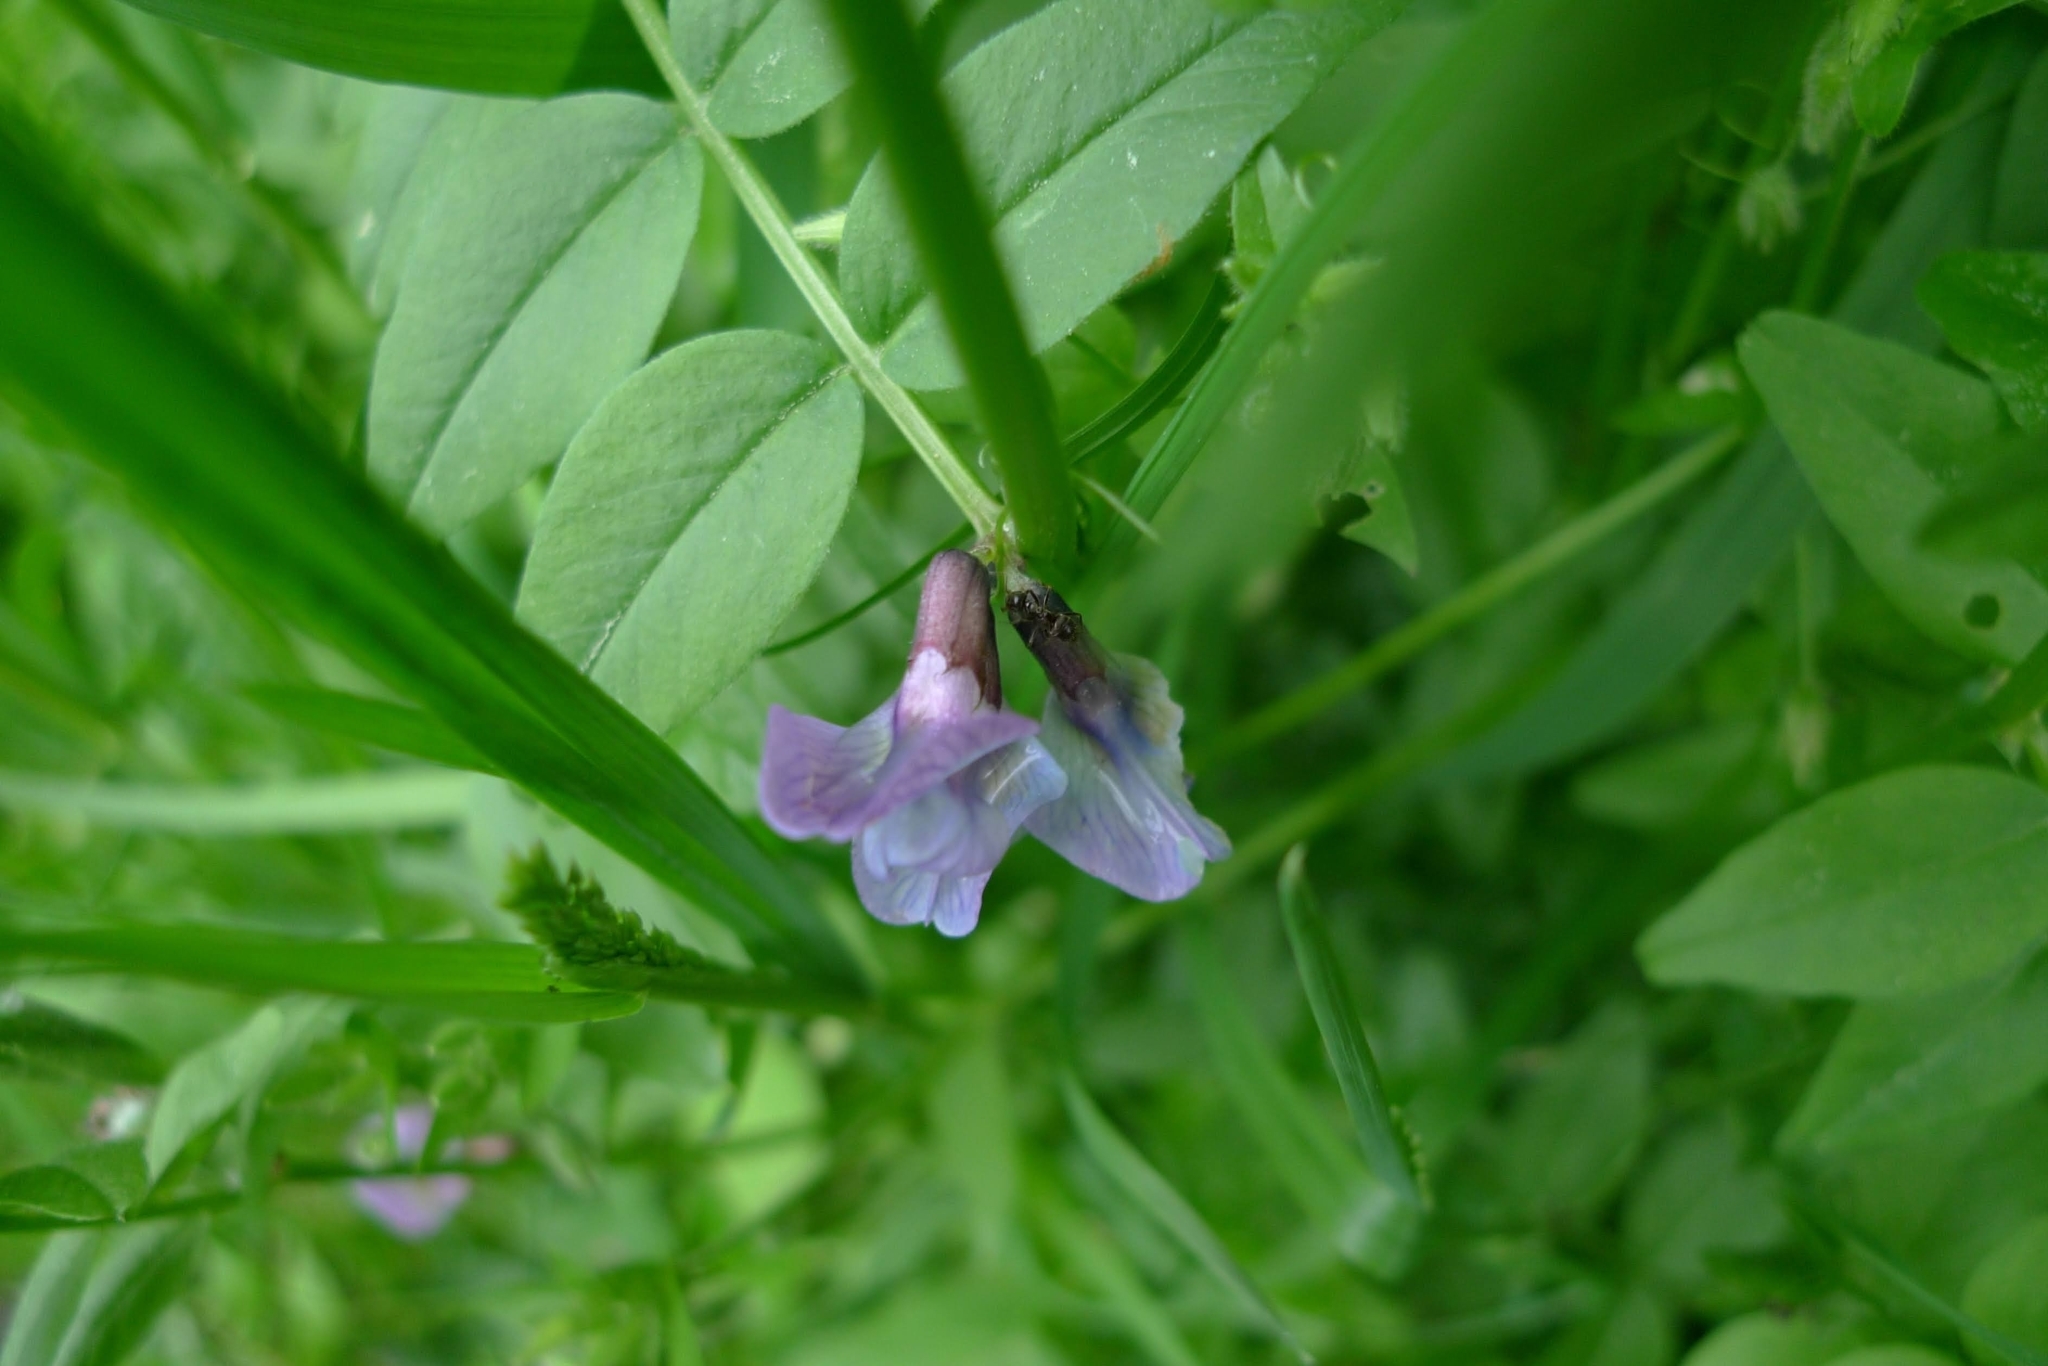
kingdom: Plantae
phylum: Tracheophyta
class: Magnoliopsida
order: Fabales
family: Fabaceae
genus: Vicia
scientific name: Vicia sepium
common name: Bush vetch
